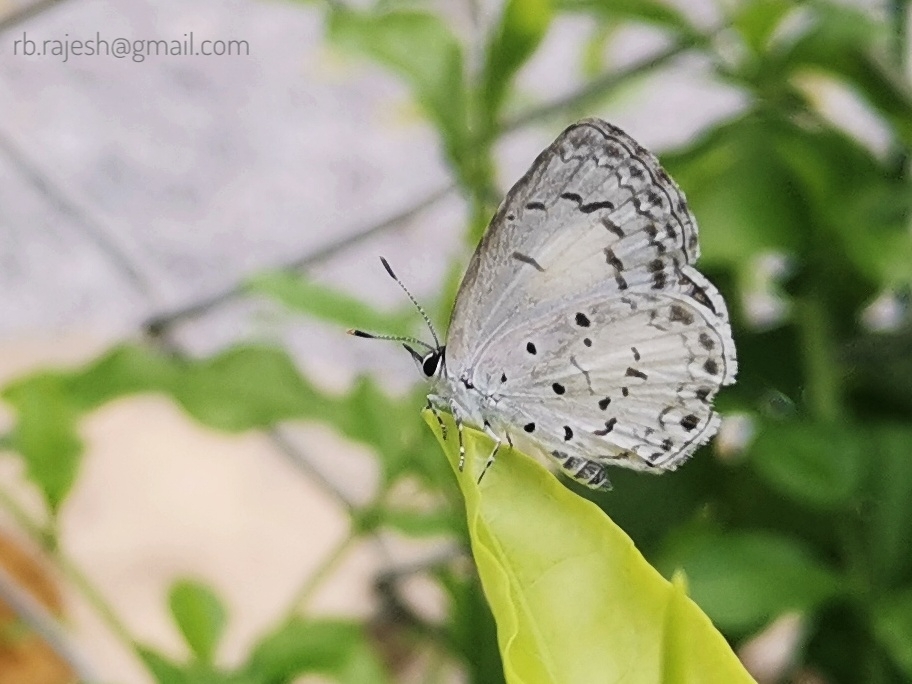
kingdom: Animalia
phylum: Arthropoda
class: Insecta
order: Lepidoptera
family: Lycaenidae
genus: Acytolepis
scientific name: Acytolepis puspa
